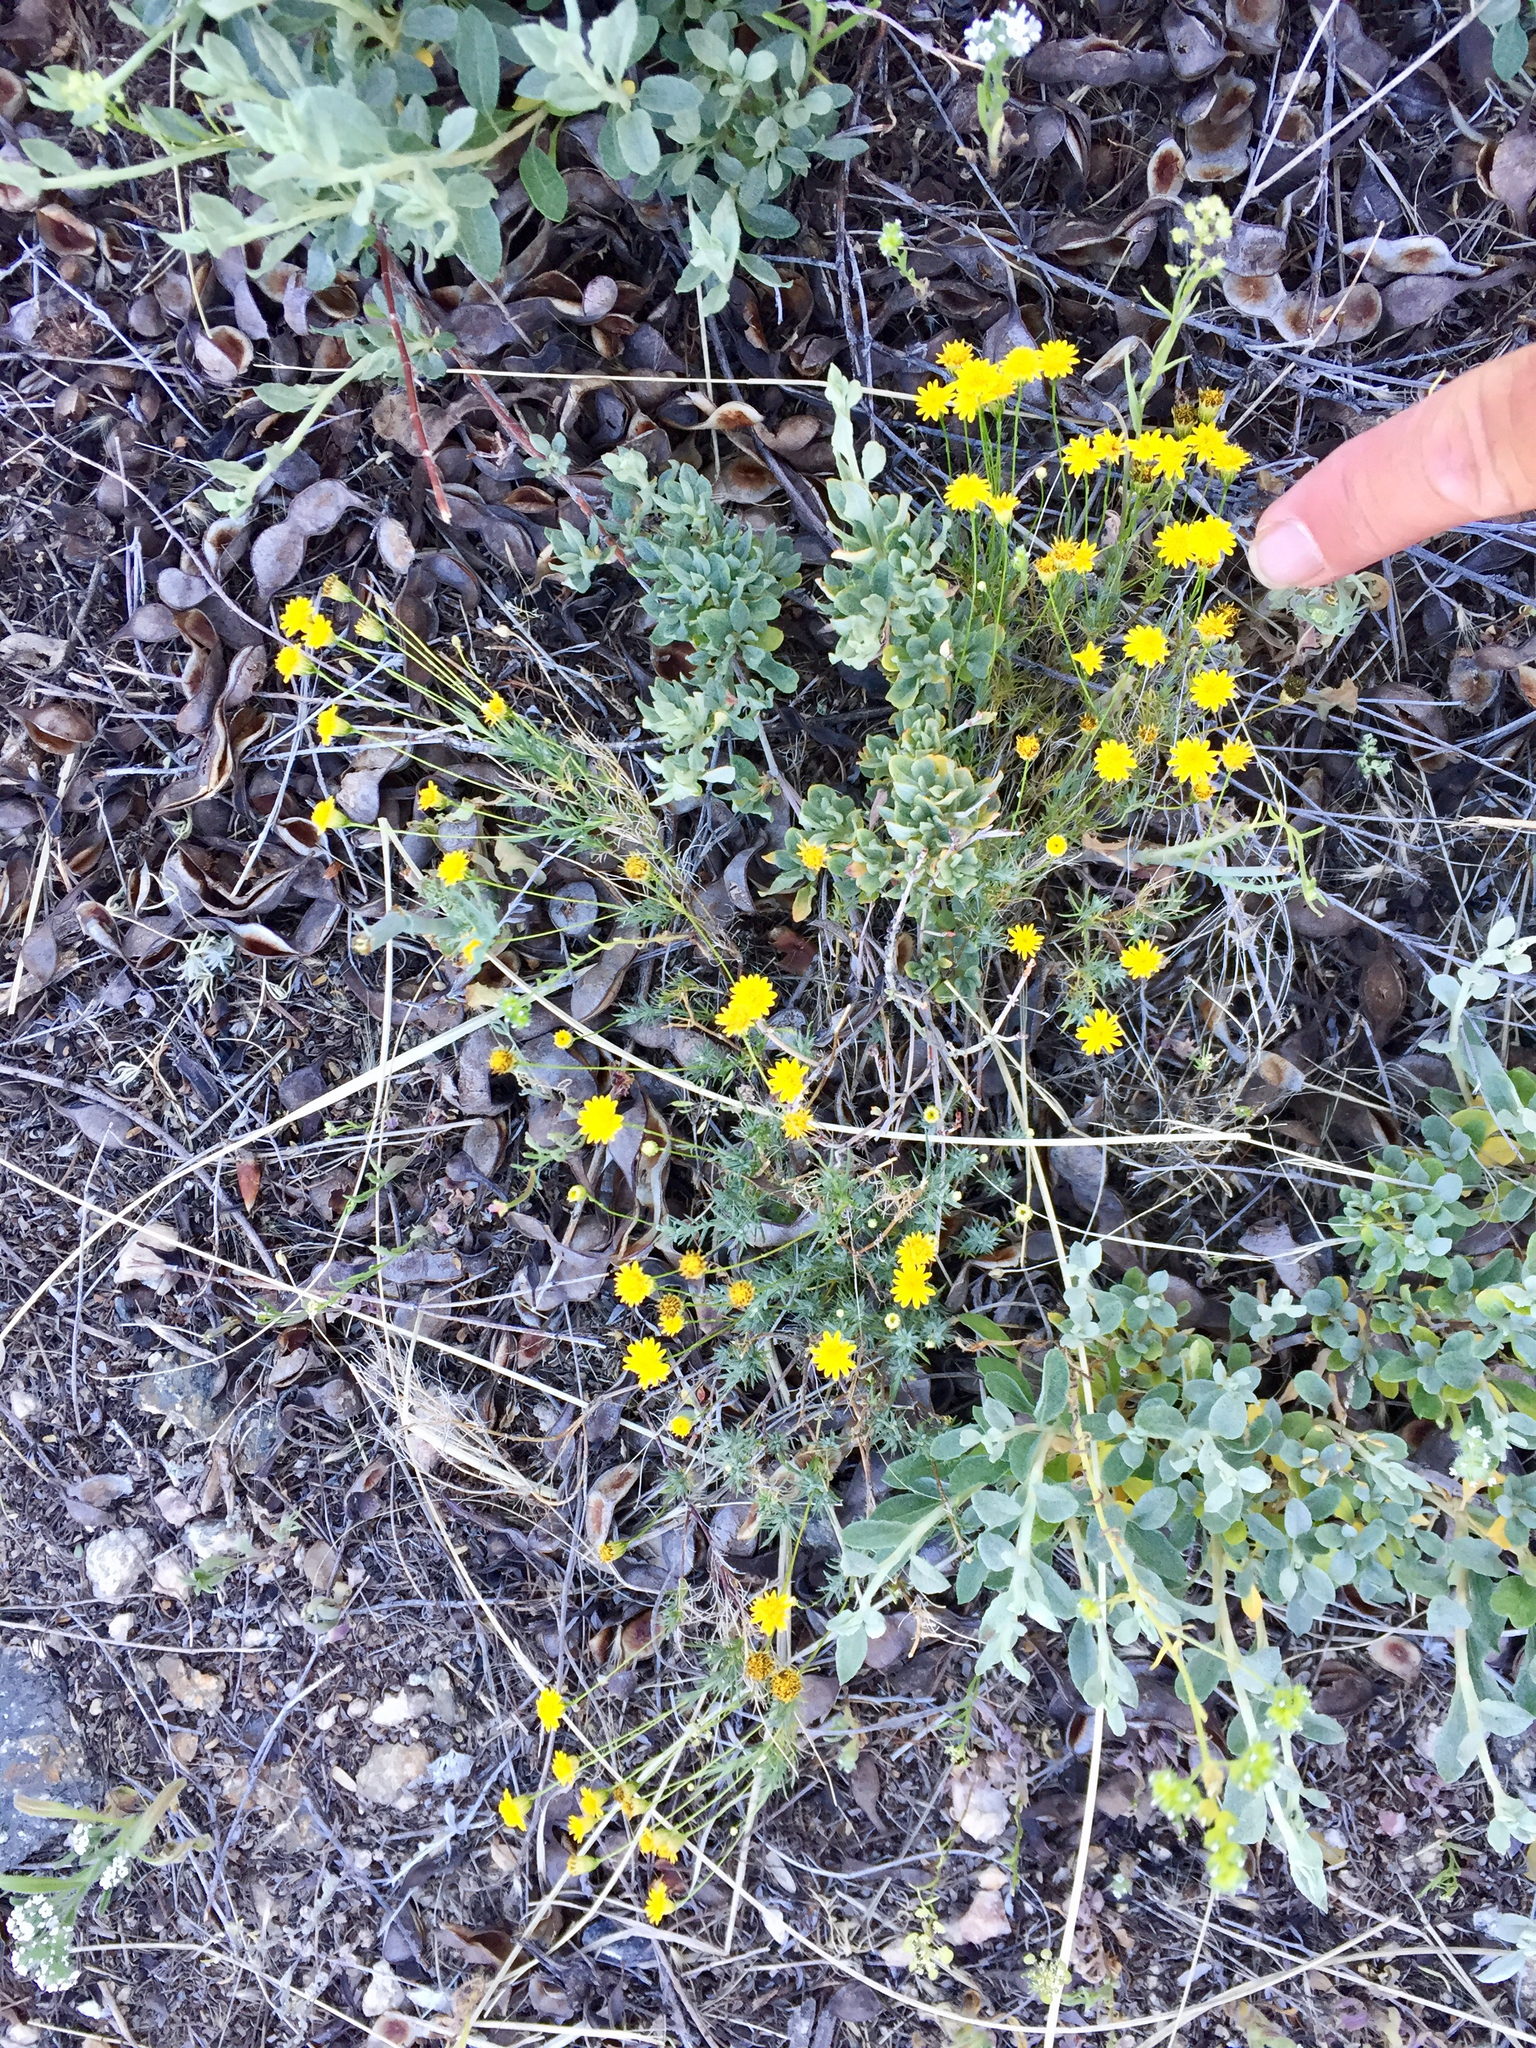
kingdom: Plantae
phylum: Tracheophyta
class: Magnoliopsida
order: Asterales
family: Asteraceae
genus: Thymophylla
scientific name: Thymophylla pentachaeta
